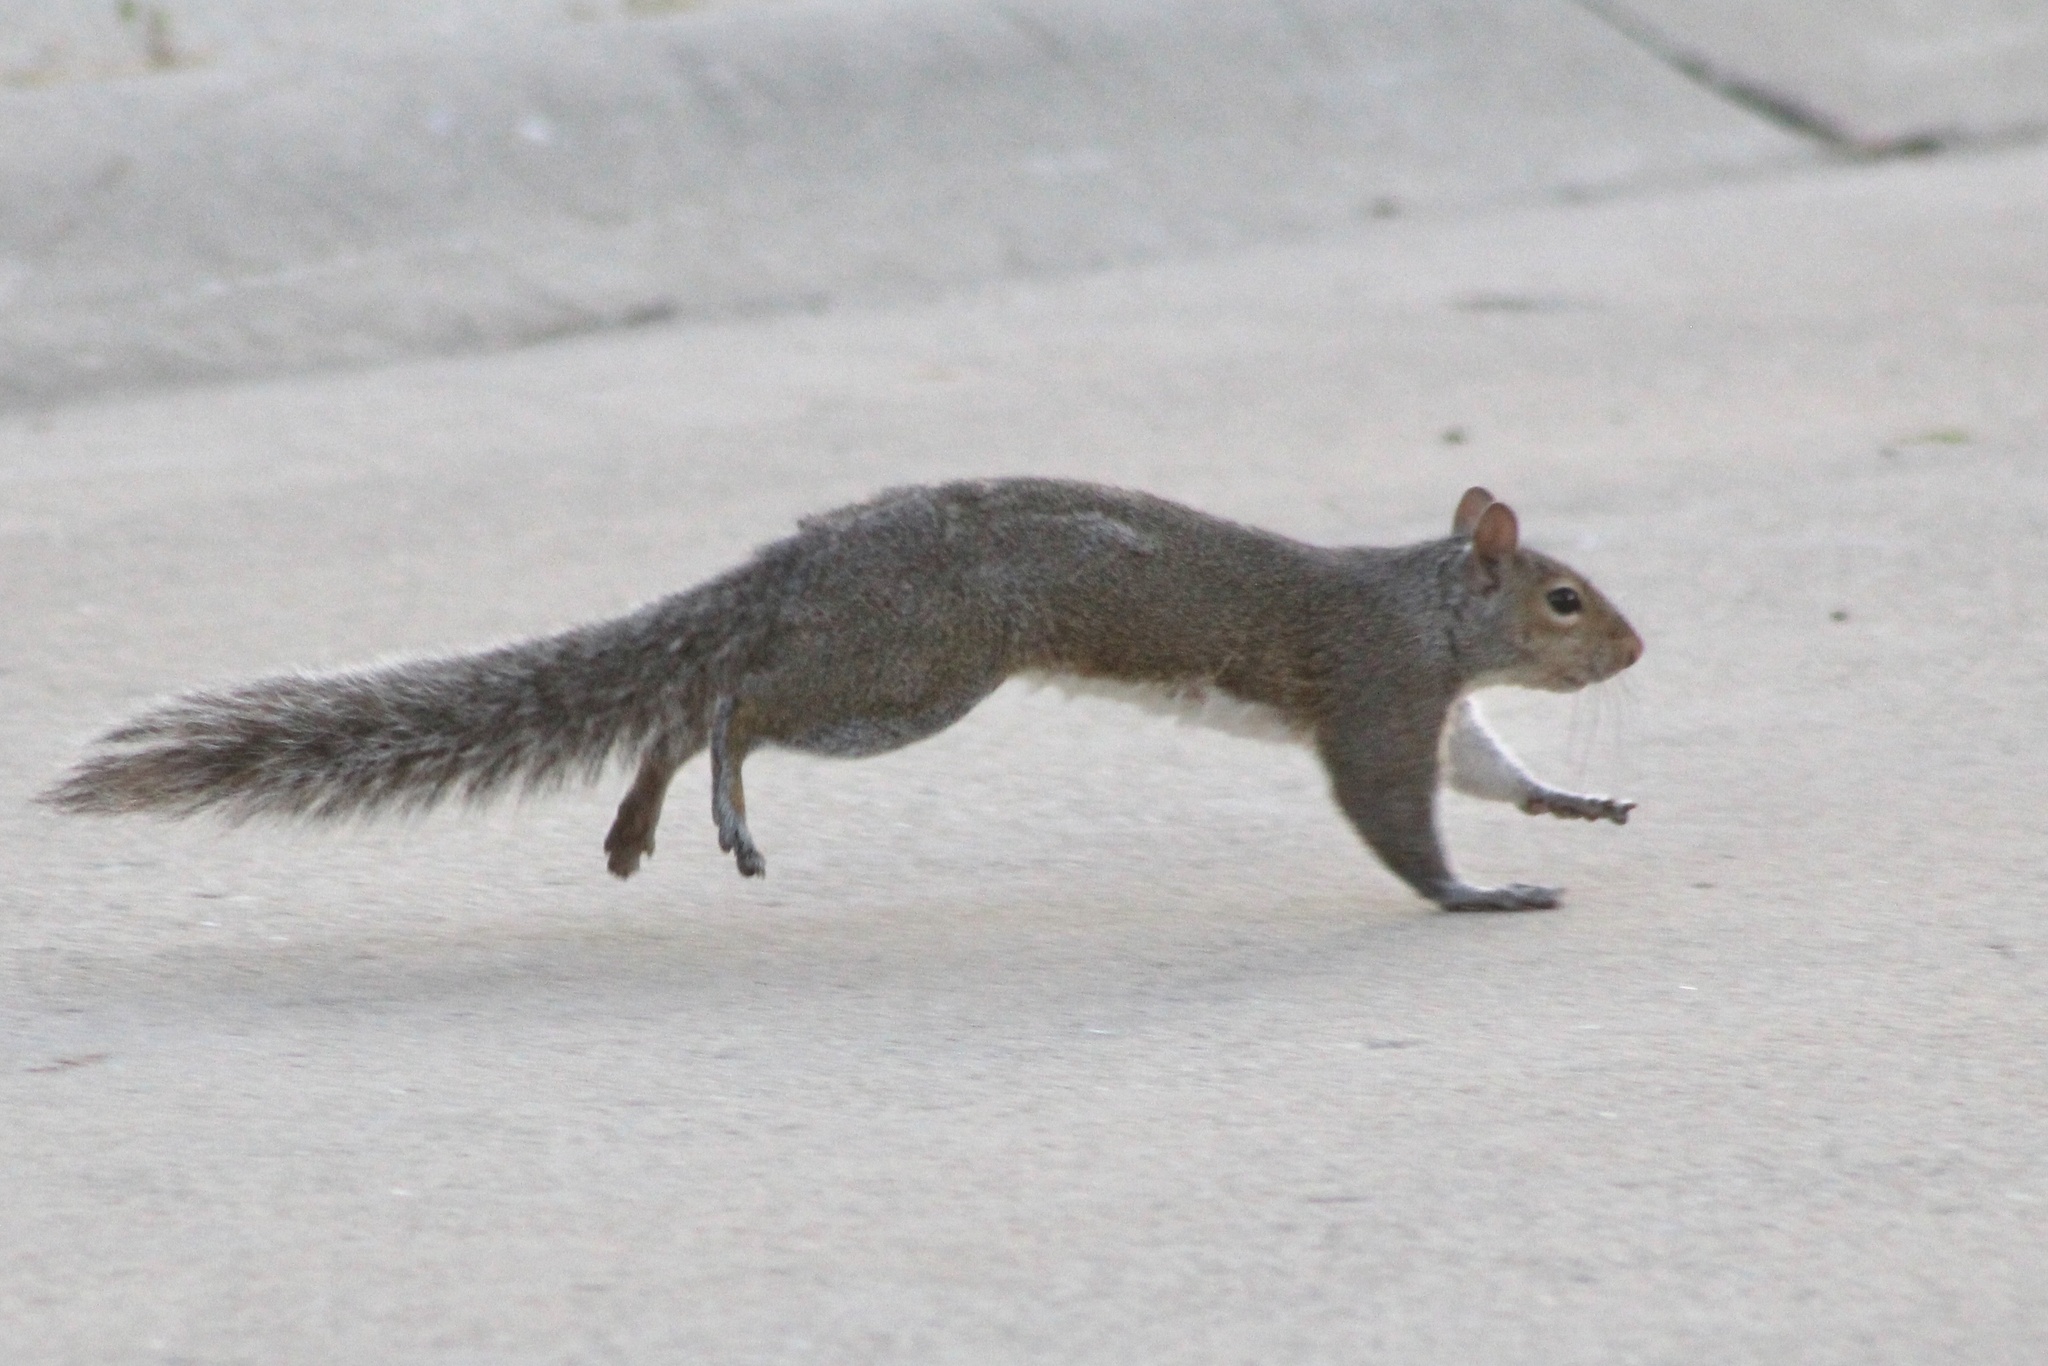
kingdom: Animalia
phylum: Chordata
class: Mammalia
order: Rodentia
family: Sciuridae
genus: Sciurus
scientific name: Sciurus carolinensis
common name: Eastern gray squirrel
